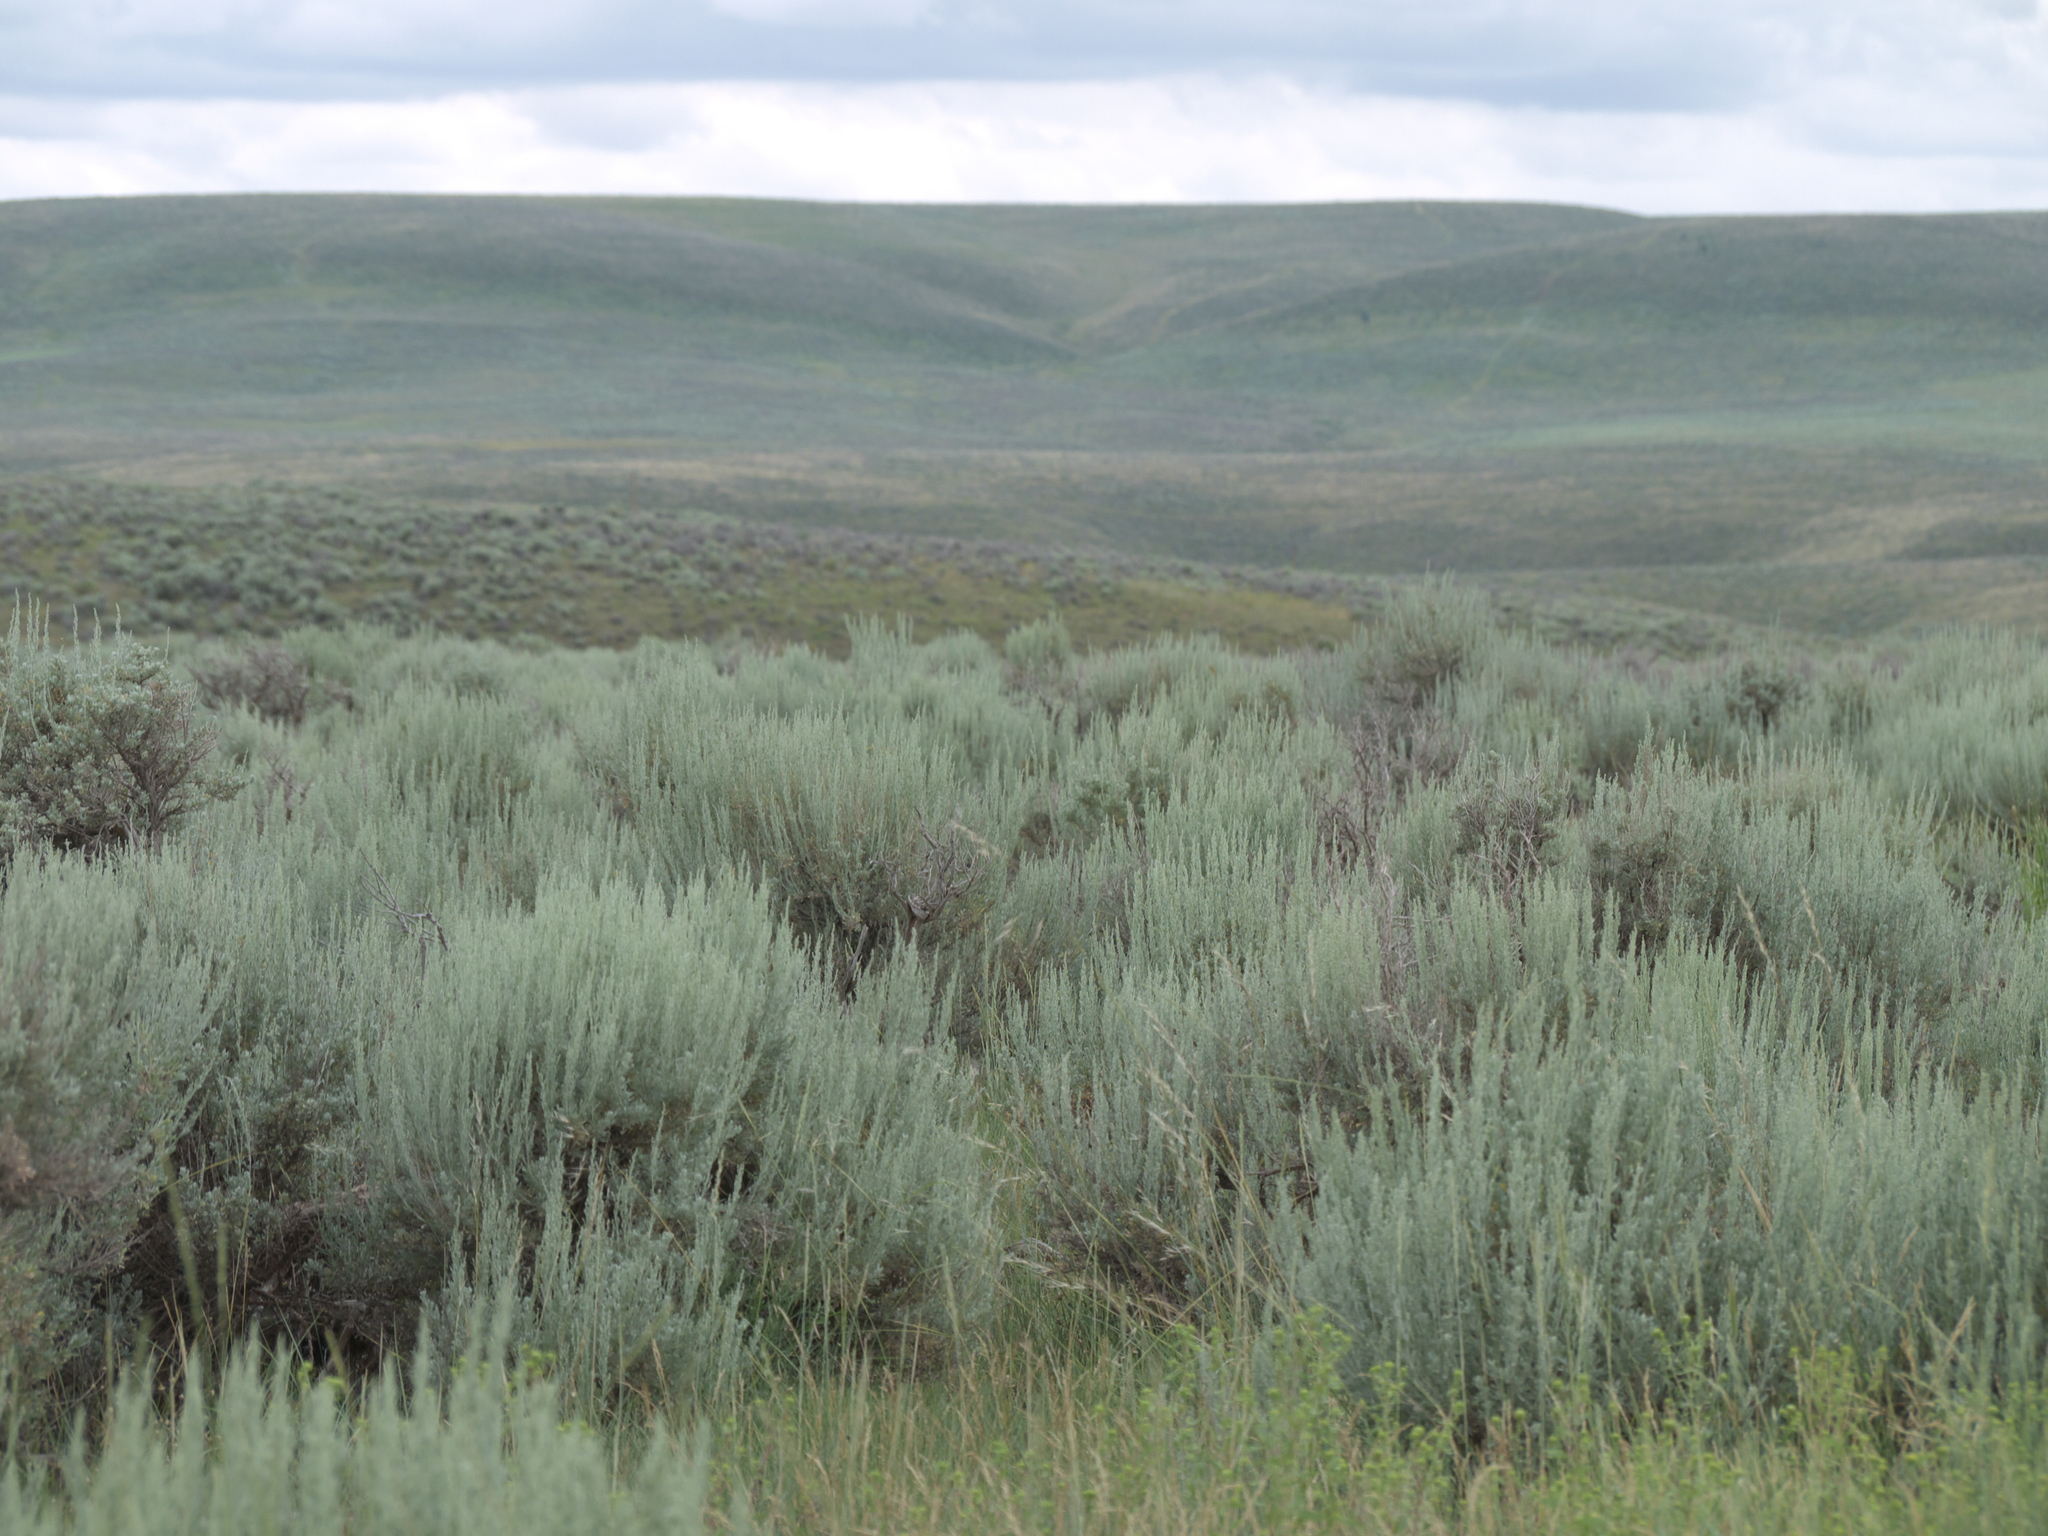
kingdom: Plantae
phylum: Tracheophyta
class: Magnoliopsida
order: Asterales
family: Asteraceae
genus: Artemisia
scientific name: Artemisia tridentata
